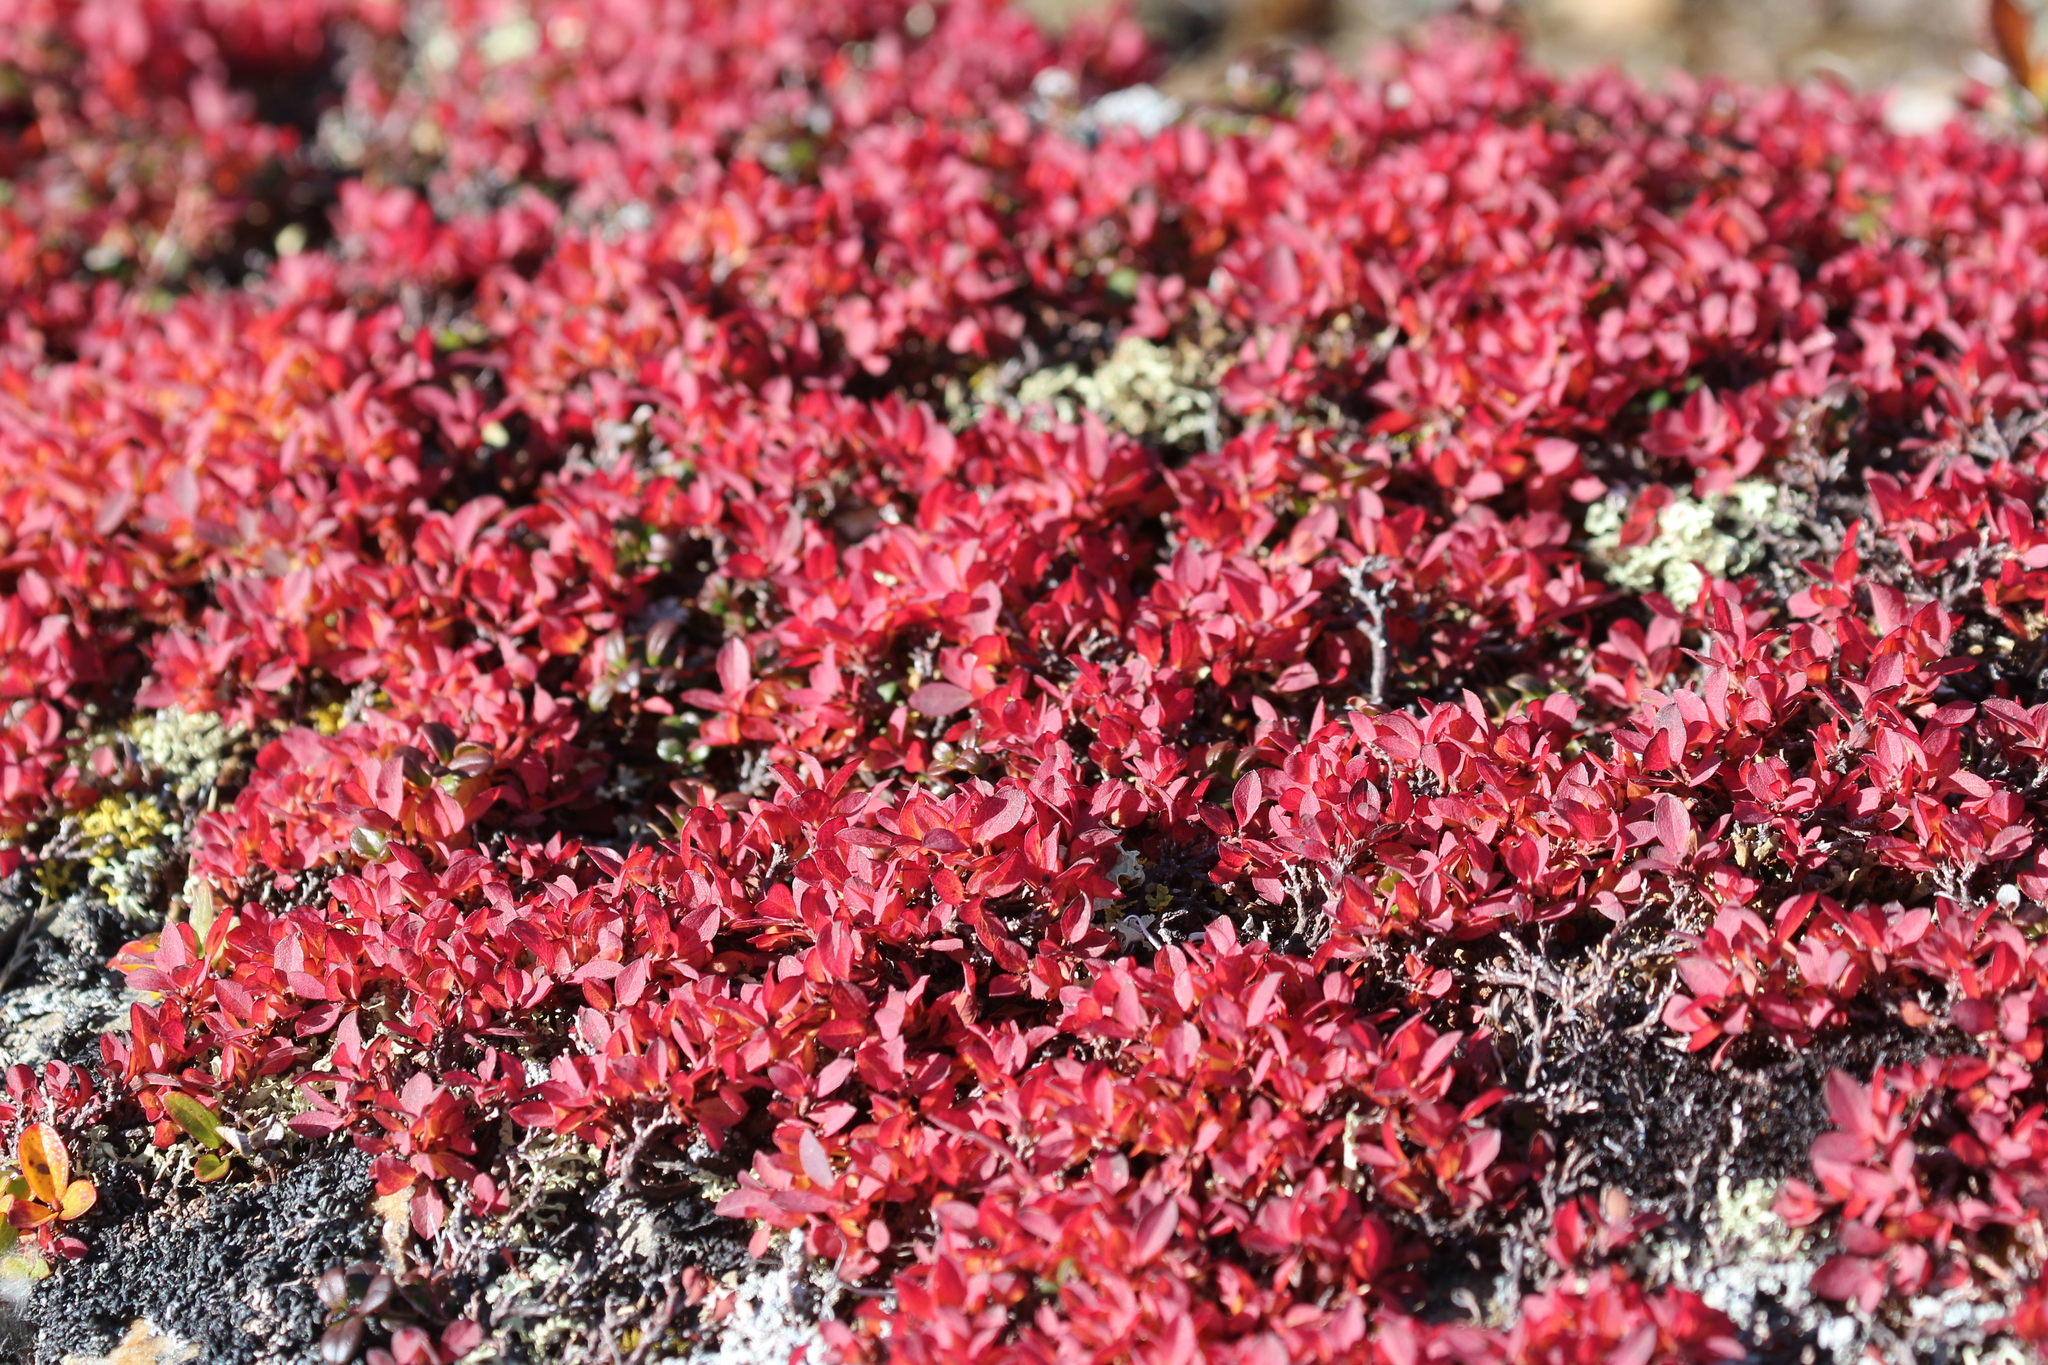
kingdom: Plantae
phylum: Tracheophyta
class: Magnoliopsida
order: Ericales
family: Ericaceae
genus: Arctostaphylos
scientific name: Arctostaphylos rubra
